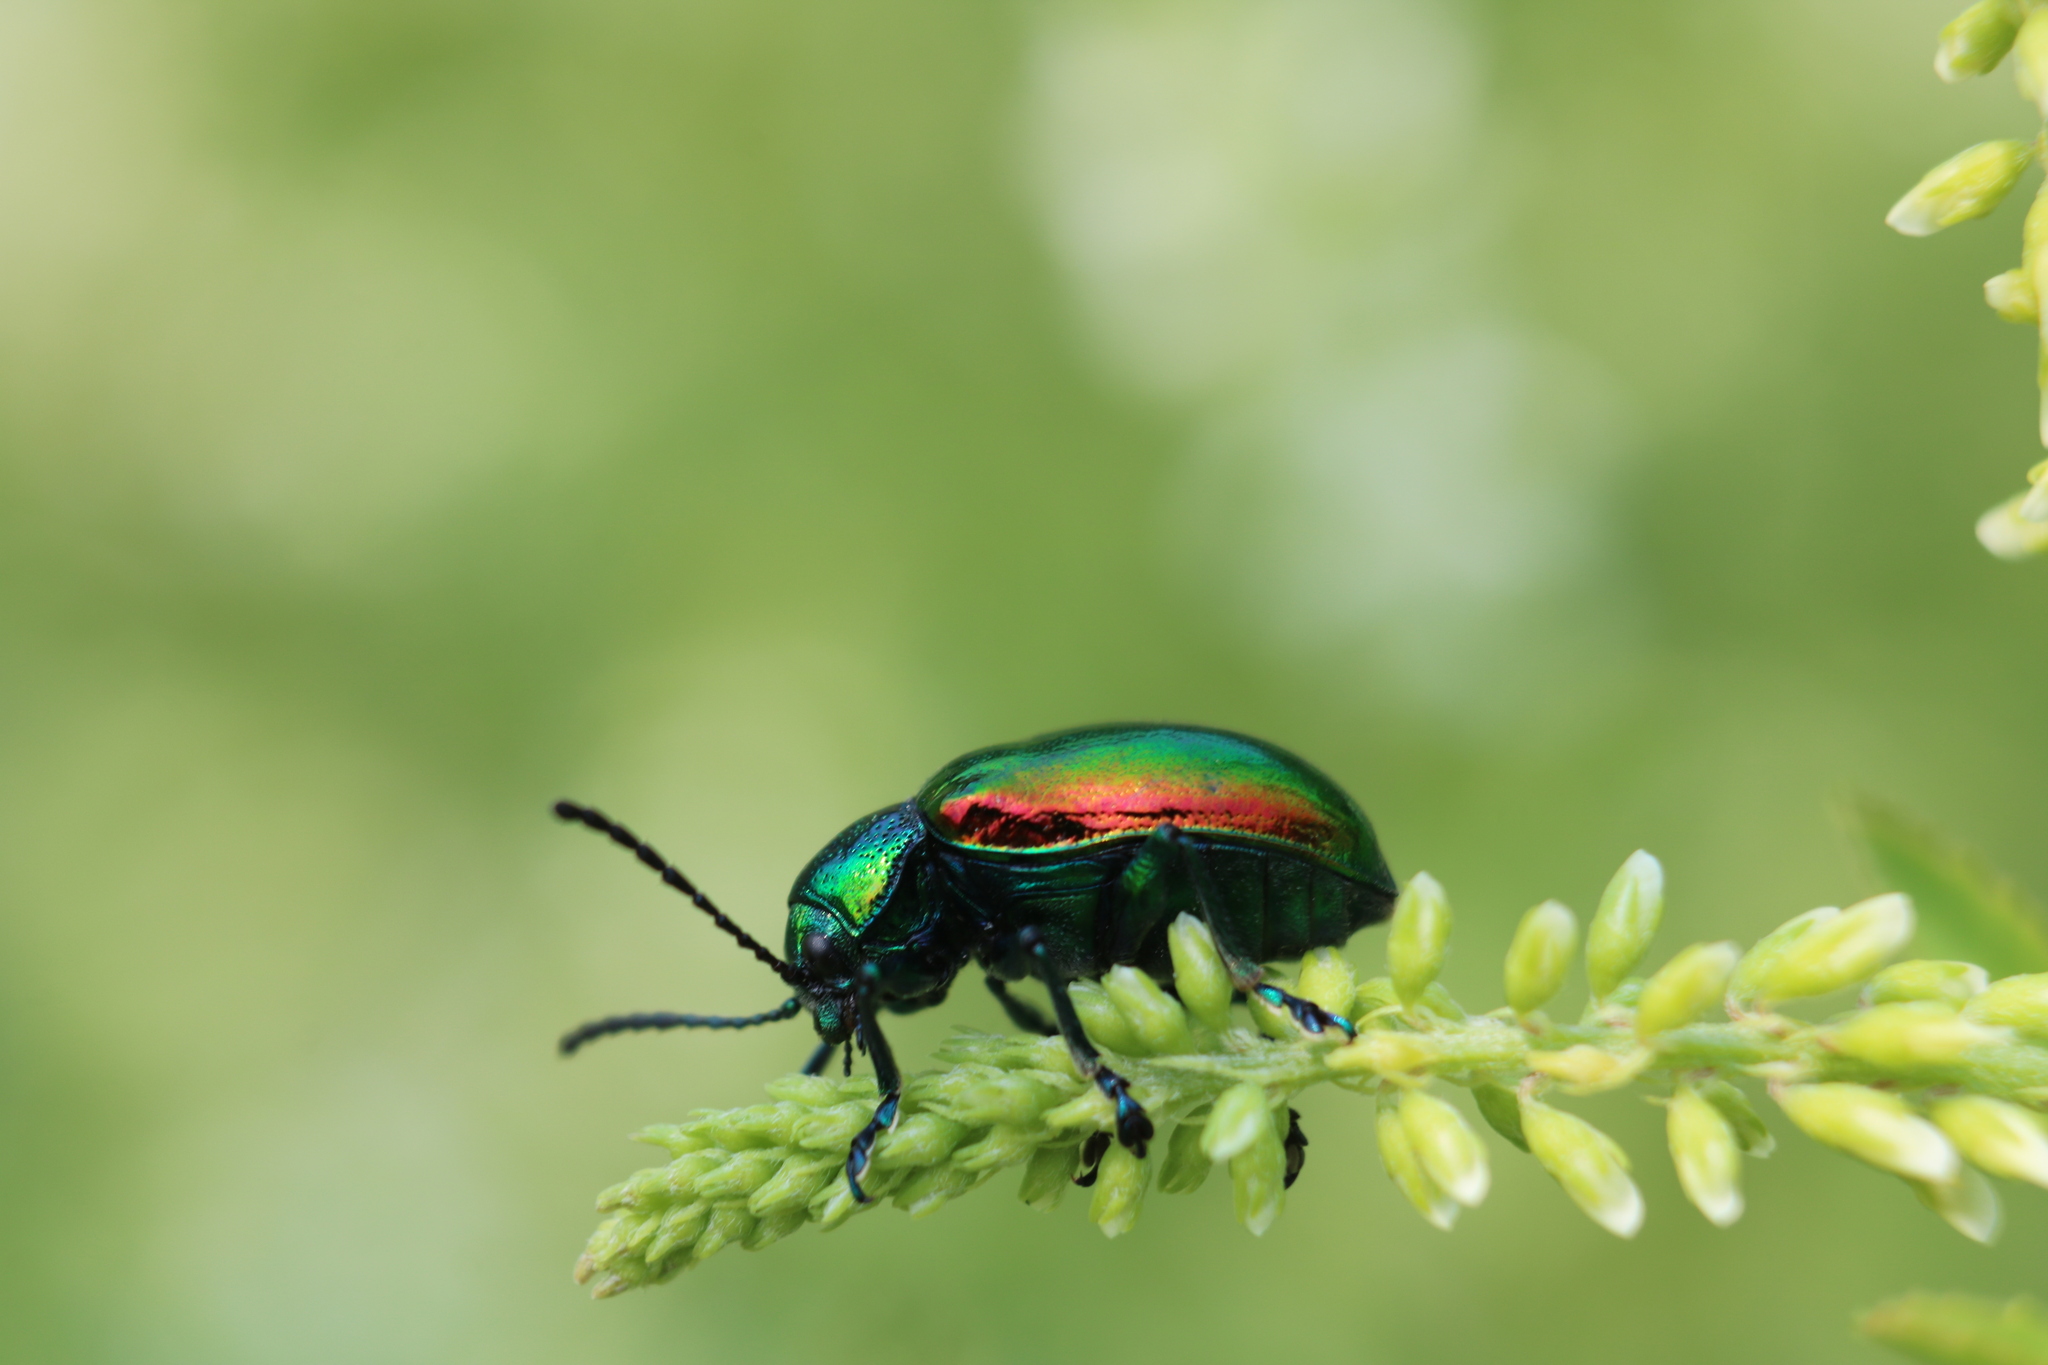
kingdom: Animalia
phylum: Arthropoda
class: Insecta
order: Coleoptera
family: Chrysomelidae
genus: Chrysochus
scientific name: Chrysochus auratus
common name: Dogbane leaf beetle
